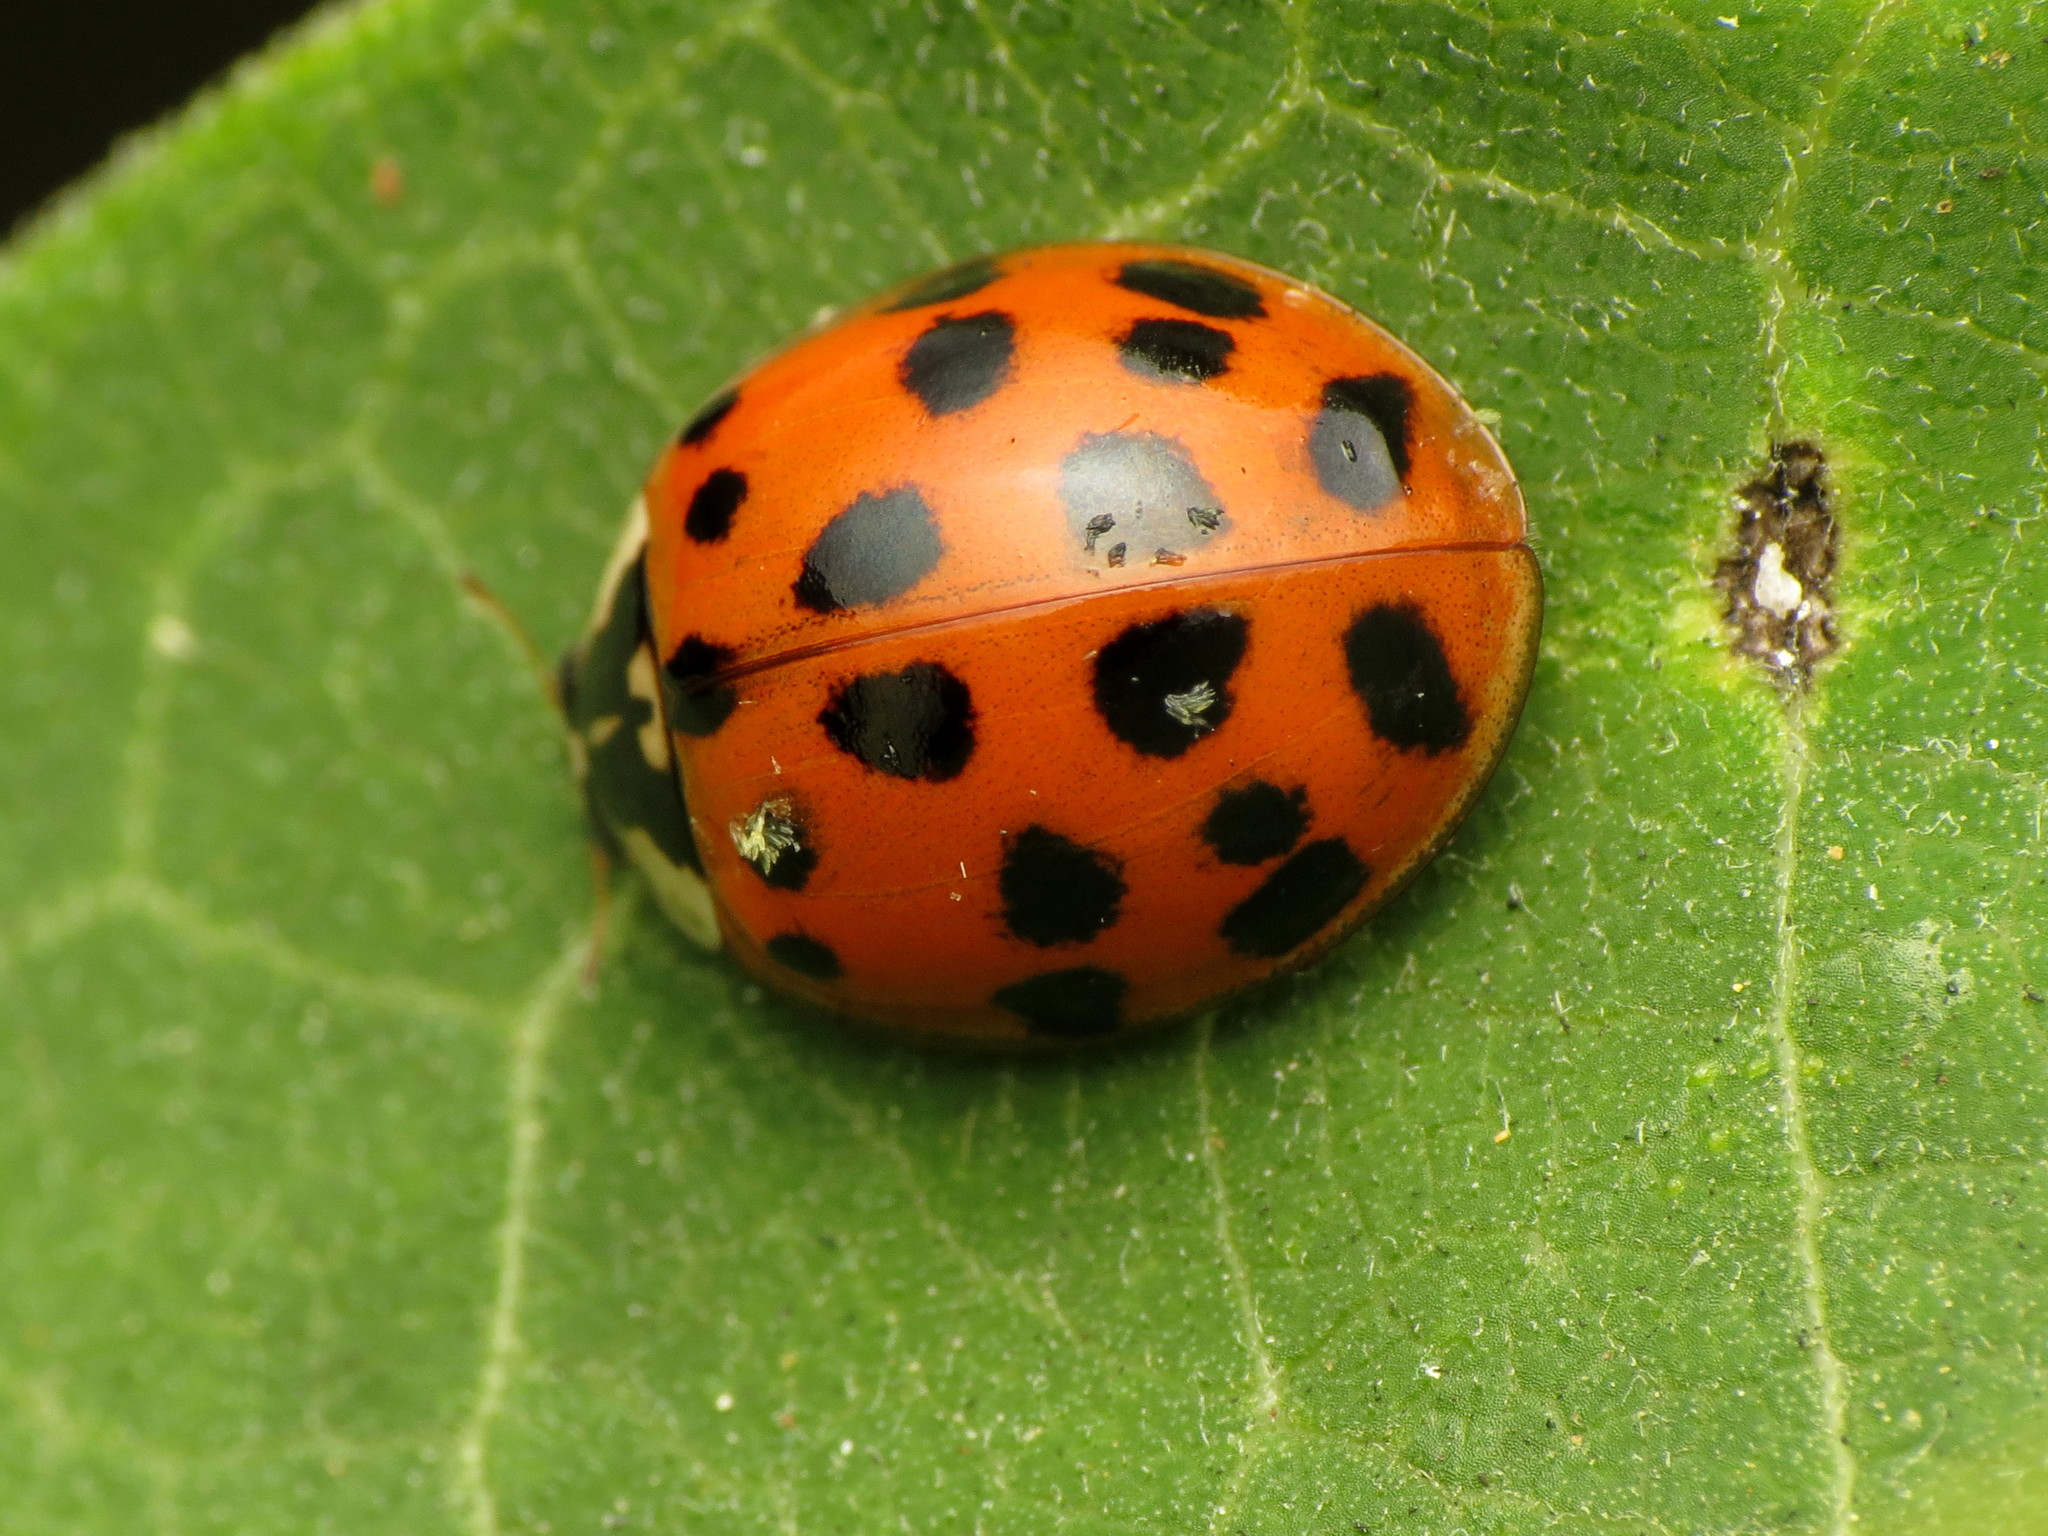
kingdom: Animalia
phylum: Arthropoda
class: Insecta
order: Coleoptera
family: Coccinellidae
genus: Harmonia
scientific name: Harmonia axyridis
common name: Harlequin ladybird
